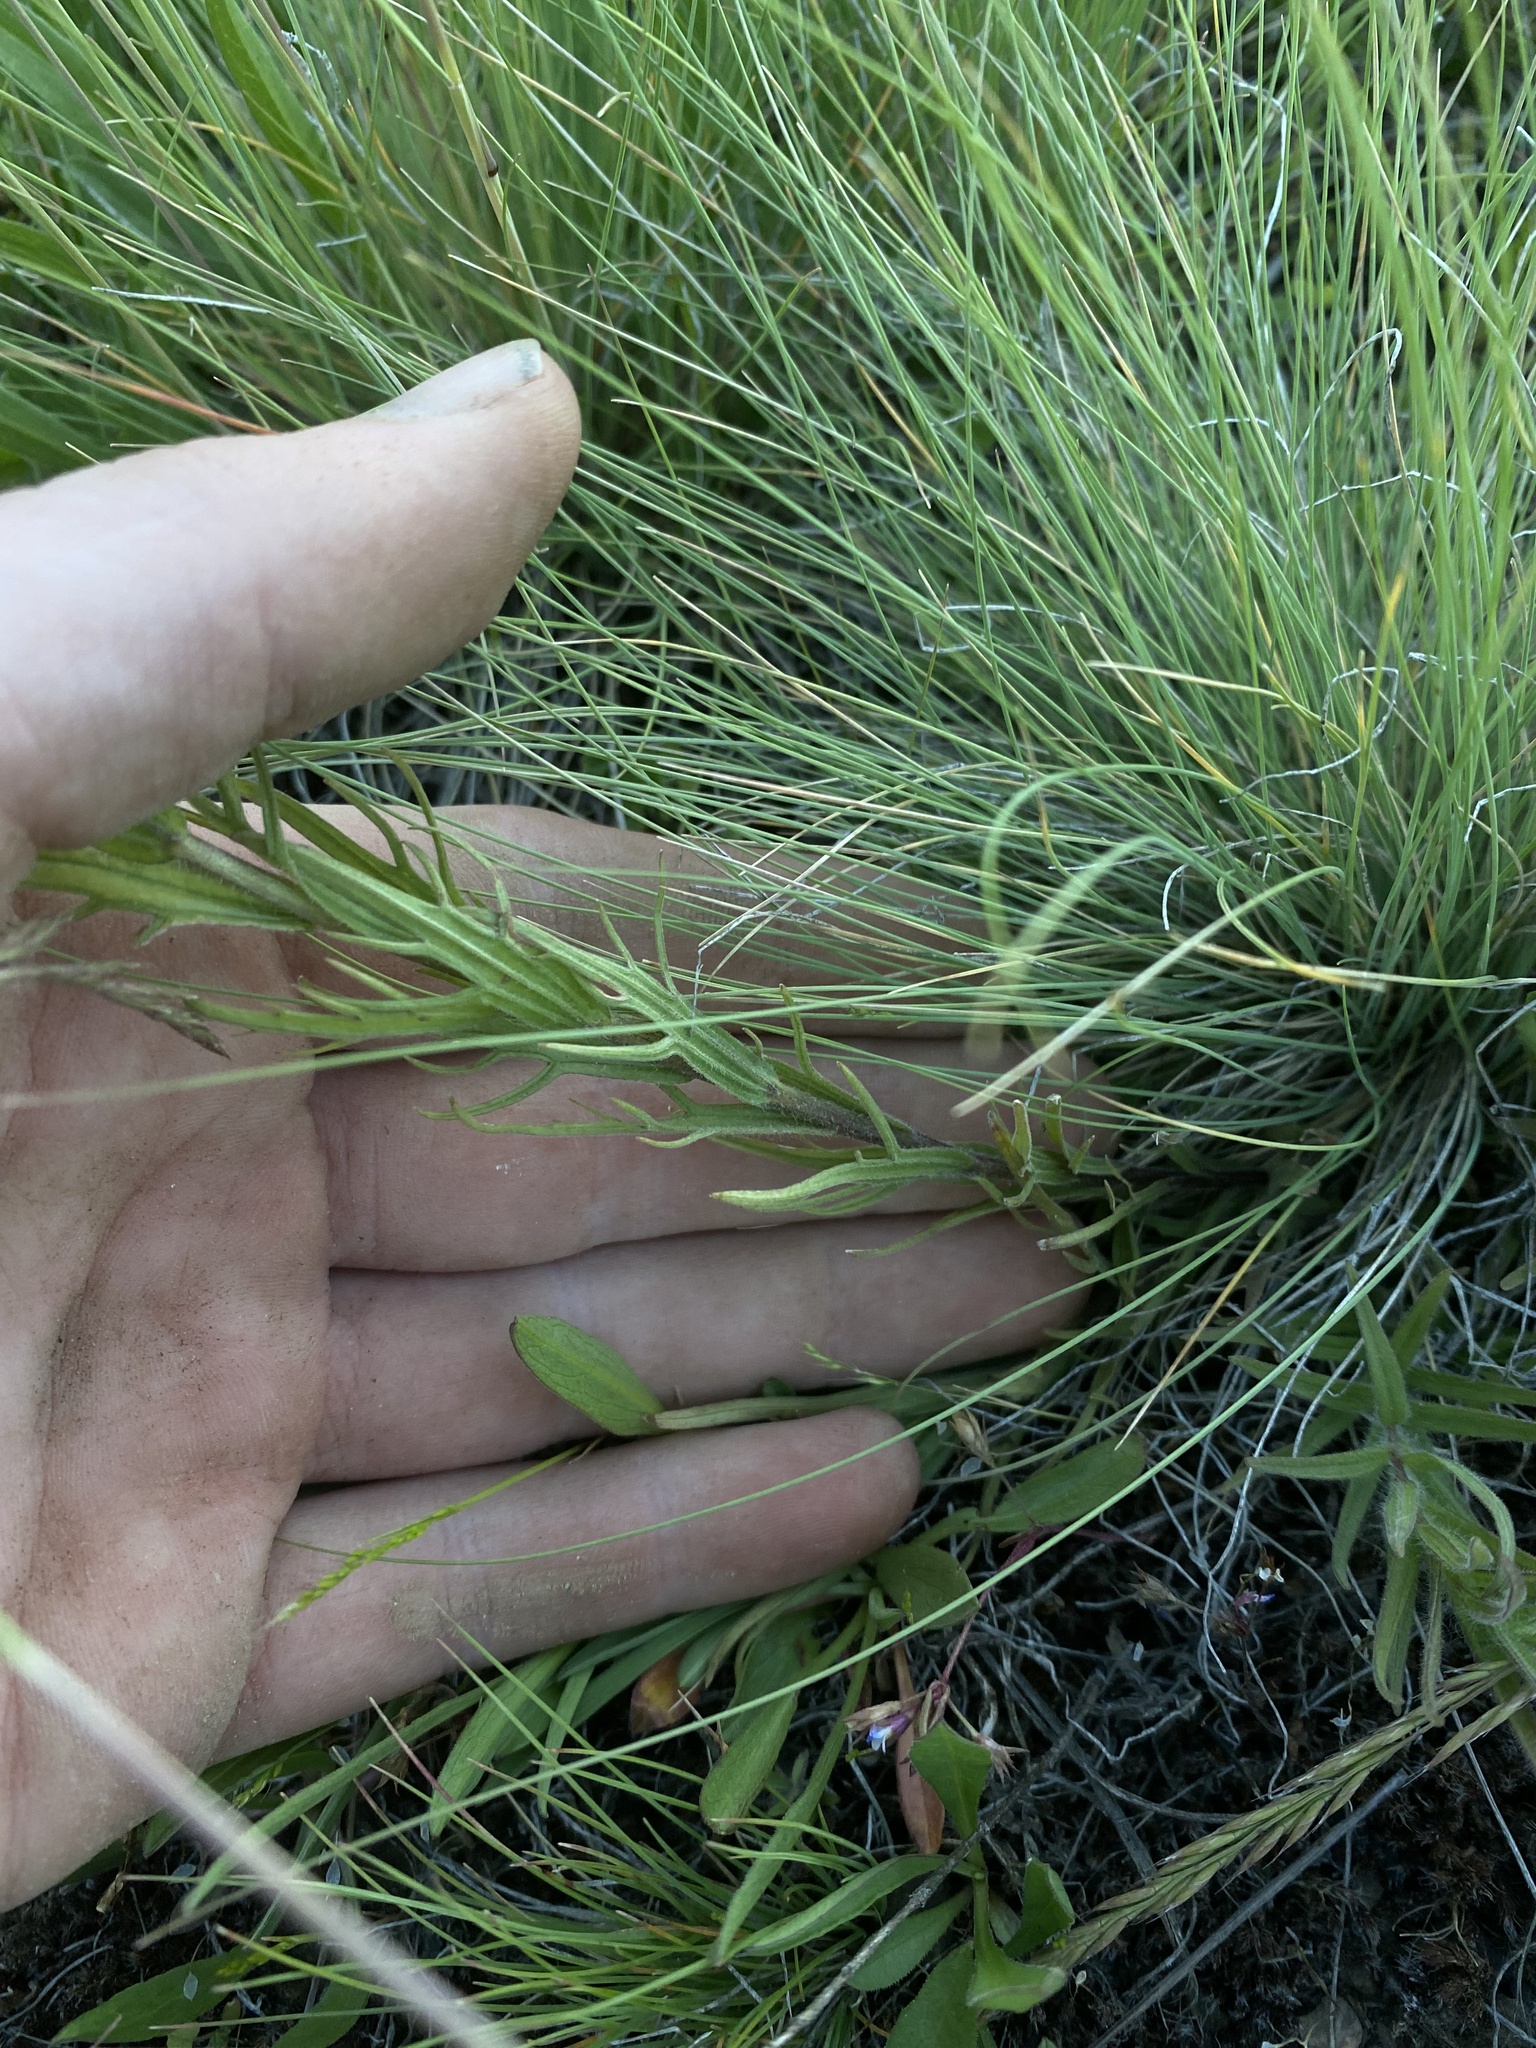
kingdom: Plantae
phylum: Tracheophyta
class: Magnoliopsida
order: Lamiales
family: Orobanchaceae
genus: Castilleja
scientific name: Castilleja cusickii
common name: Cusick's paintbrush
